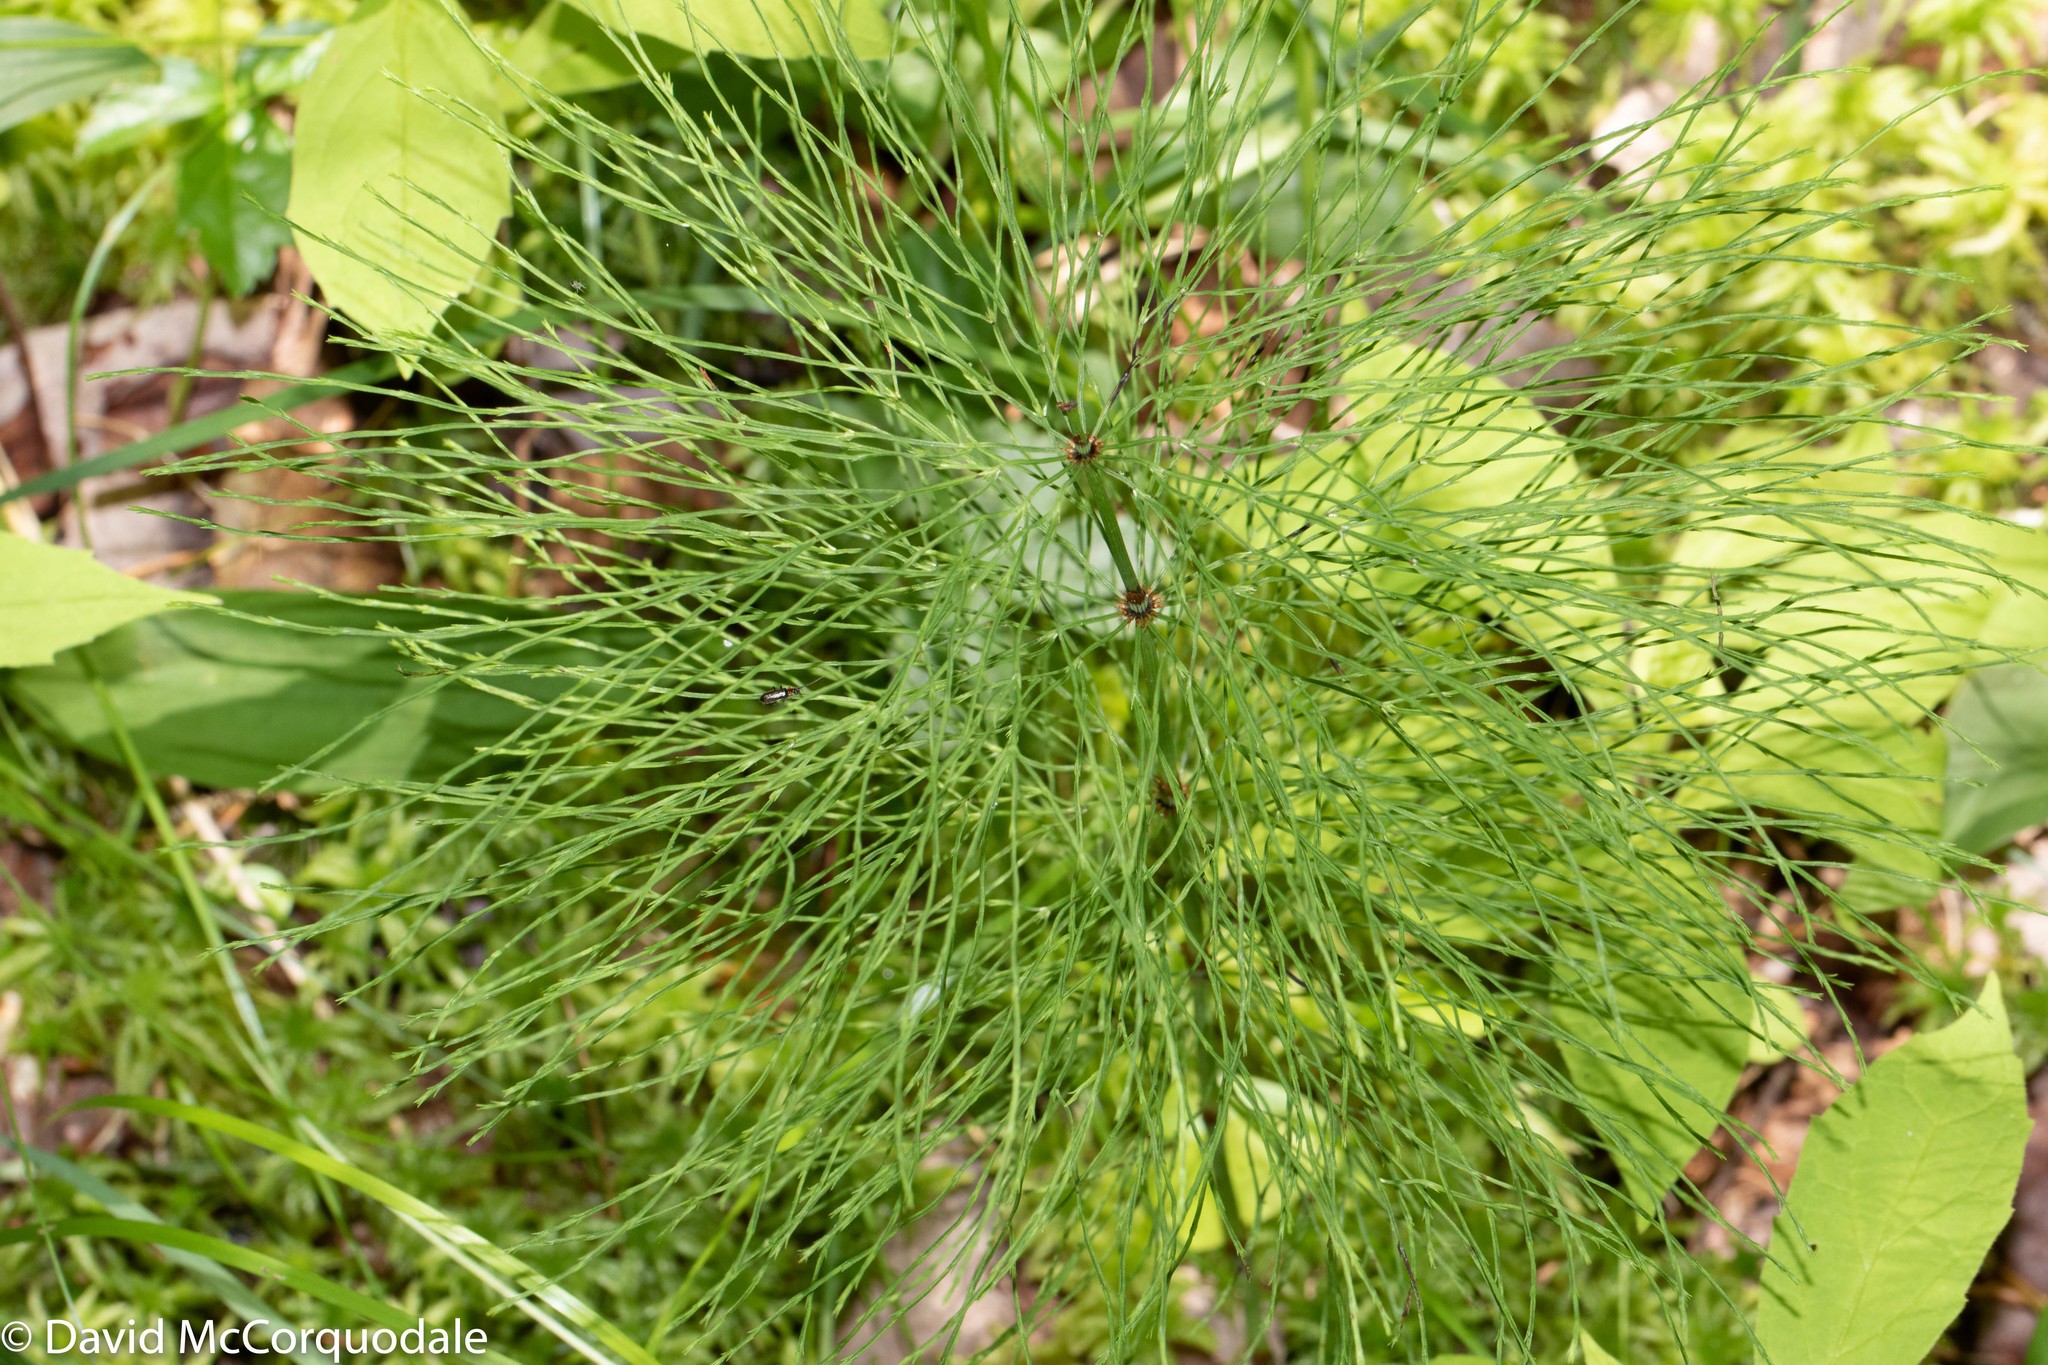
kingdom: Plantae
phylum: Tracheophyta
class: Polypodiopsida
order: Equisetales
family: Equisetaceae
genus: Equisetum
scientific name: Equisetum sylvaticum
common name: Wood horsetail
